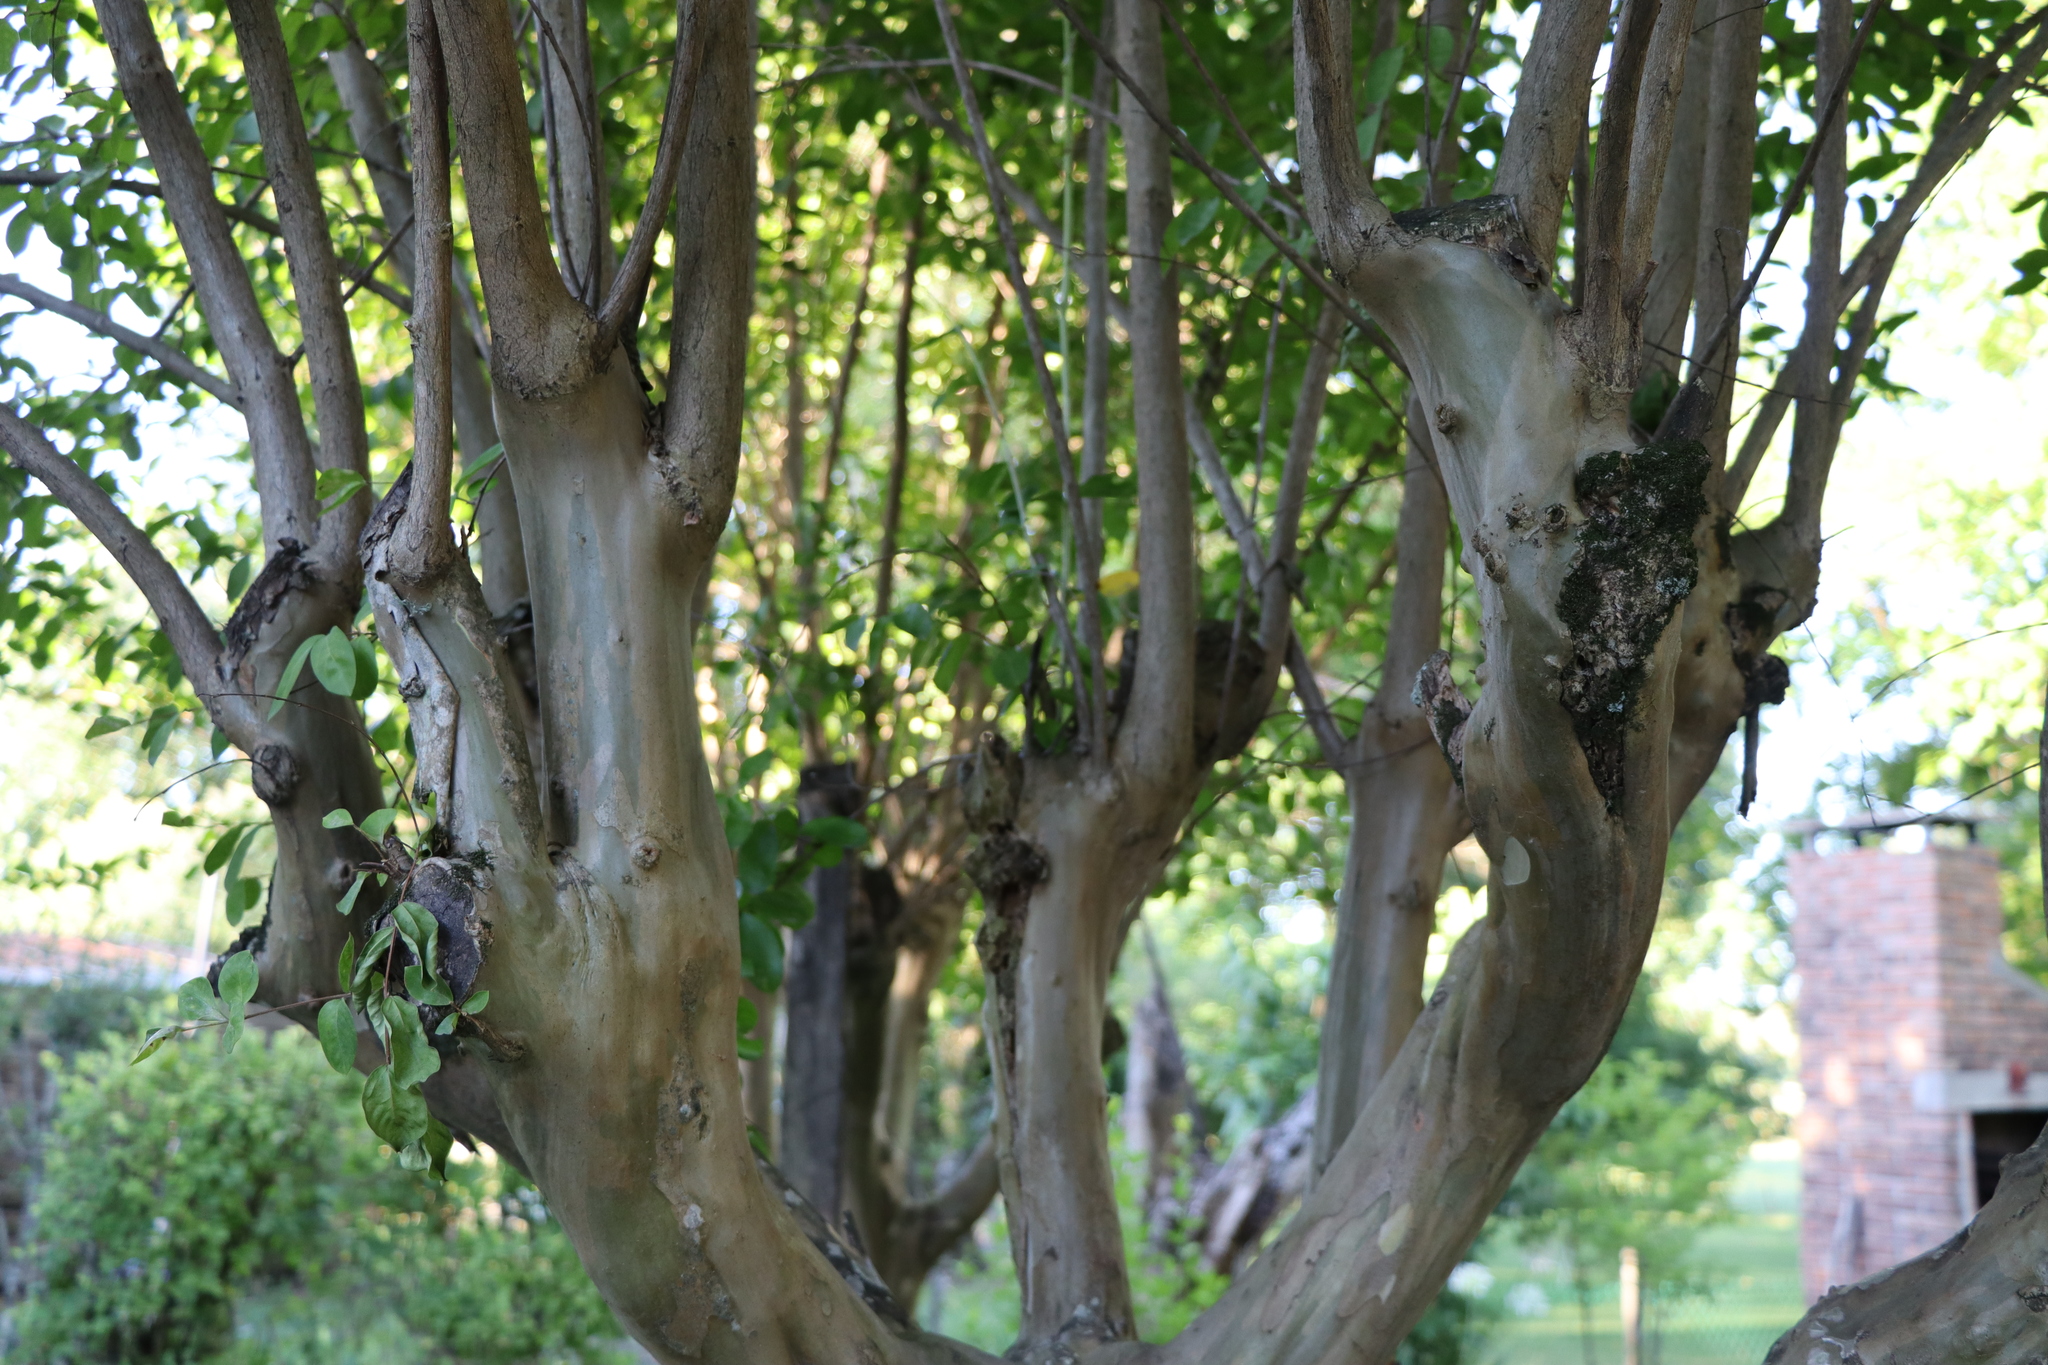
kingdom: Plantae
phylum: Tracheophyta
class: Magnoliopsida
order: Myrtales
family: Lythraceae
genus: Lagerstroemia
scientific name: Lagerstroemia indica
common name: Crape-myrtle
